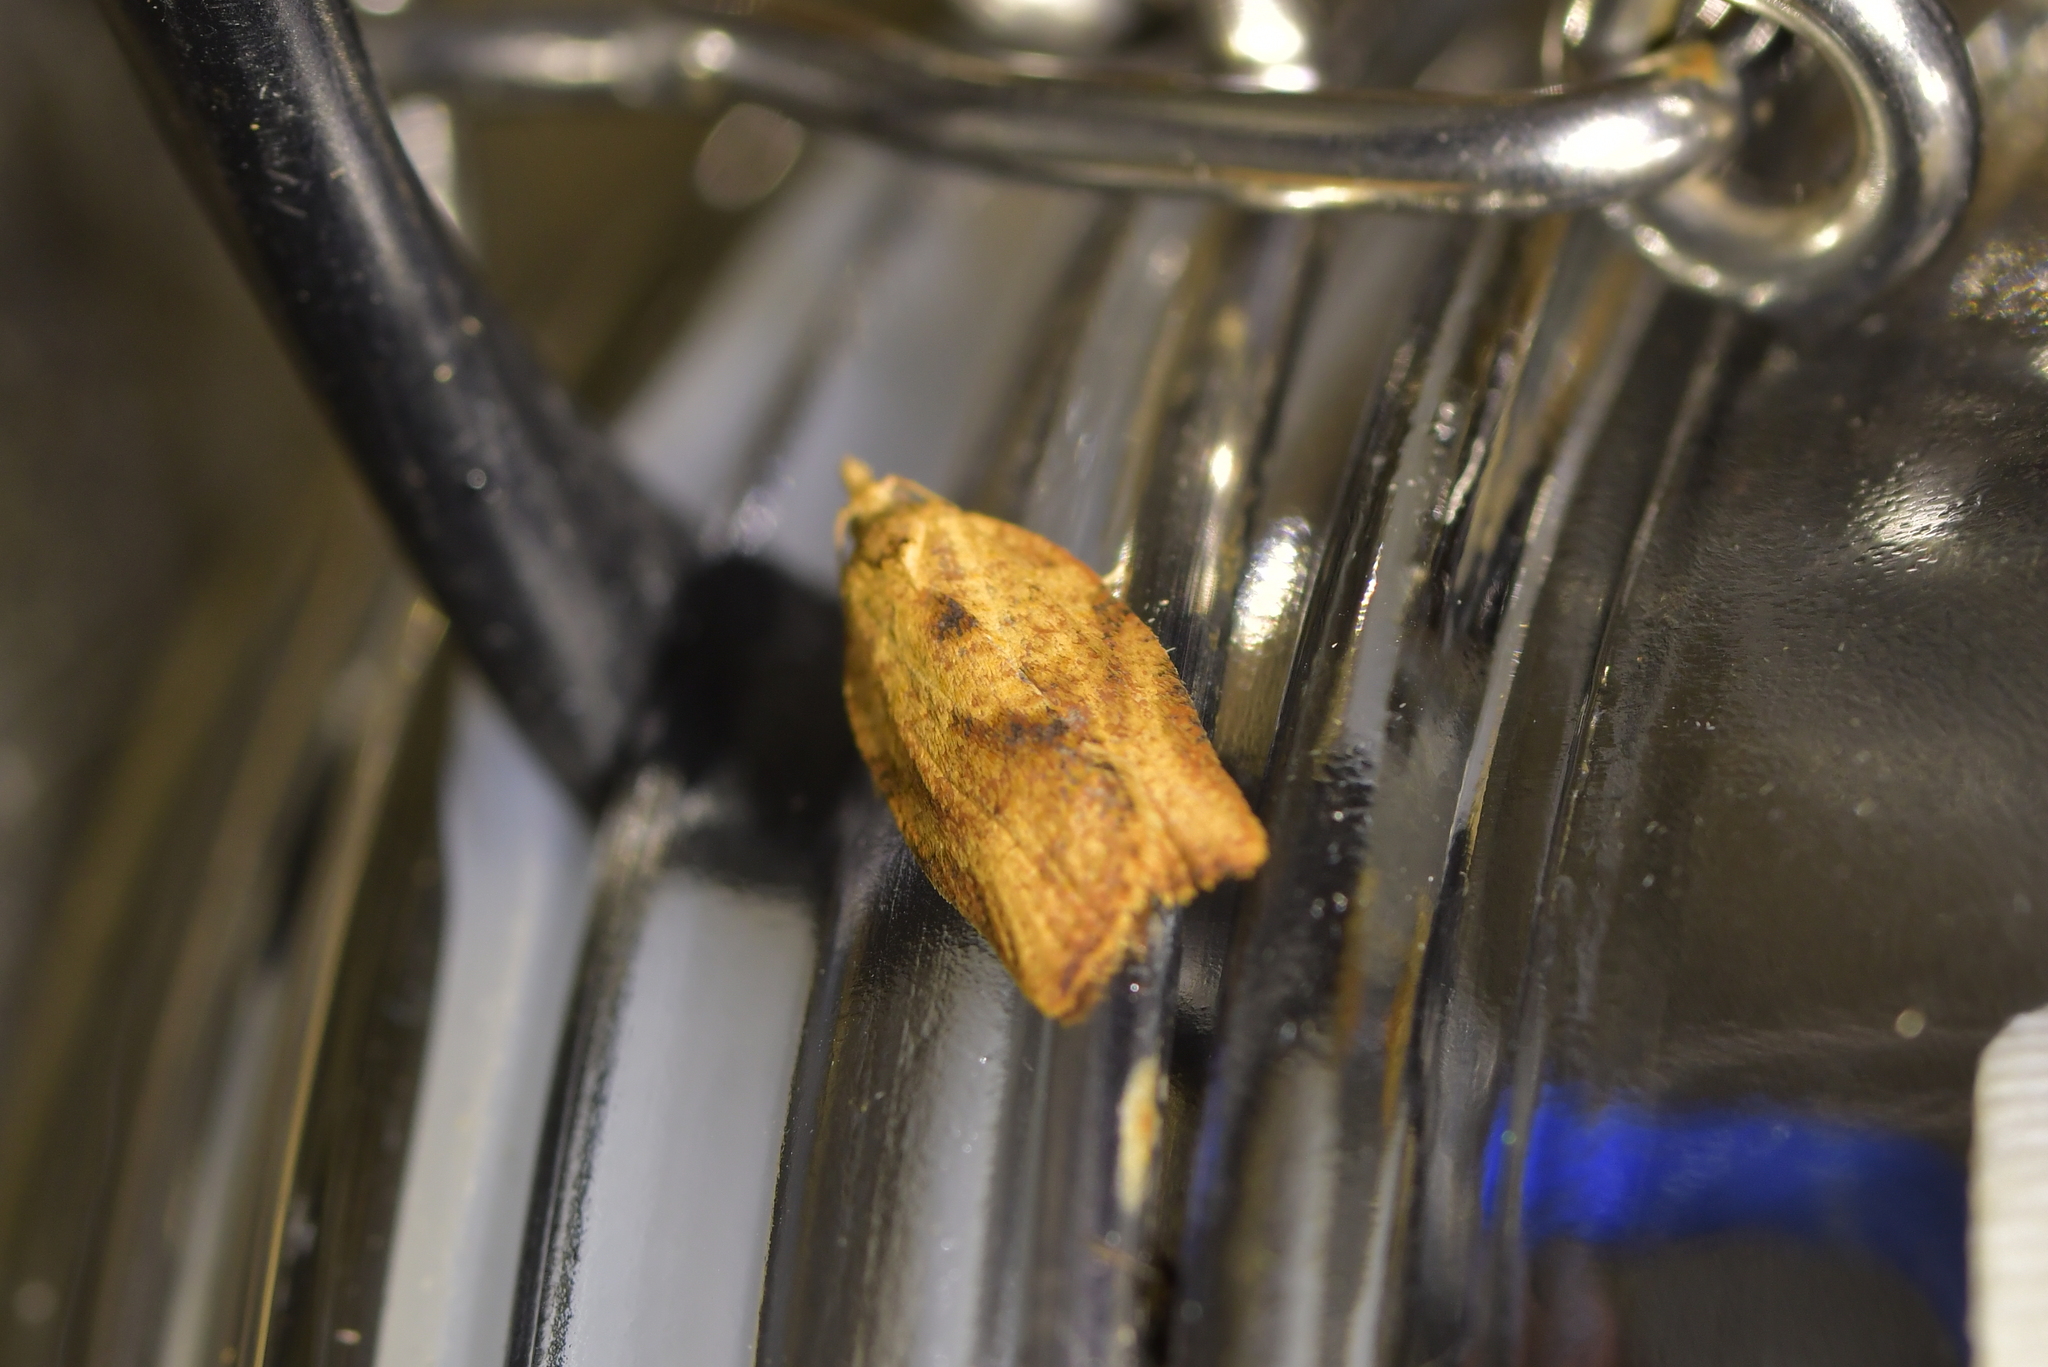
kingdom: Animalia
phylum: Arthropoda
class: Insecta
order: Lepidoptera
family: Tortricidae
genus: Epiphyas
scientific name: Epiphyas postvittana
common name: Light brown apple moth
